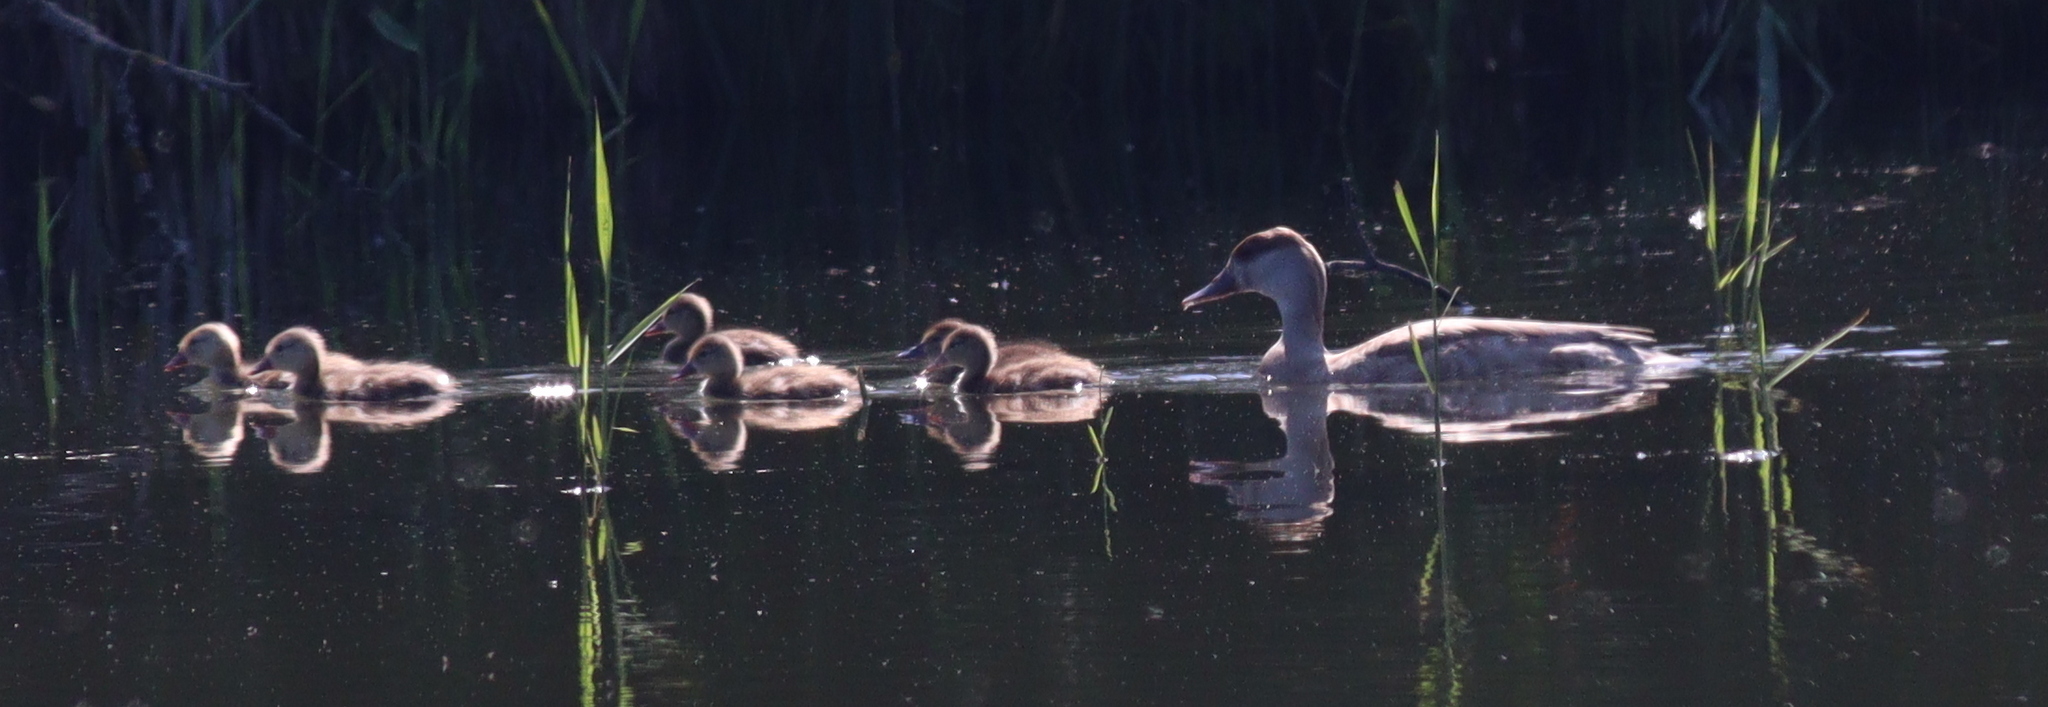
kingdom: Animalia
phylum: Chordata
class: Aves
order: Anseriformes
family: Anatidae
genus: Netta
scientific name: Netta rufina
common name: Red-crested pochard
